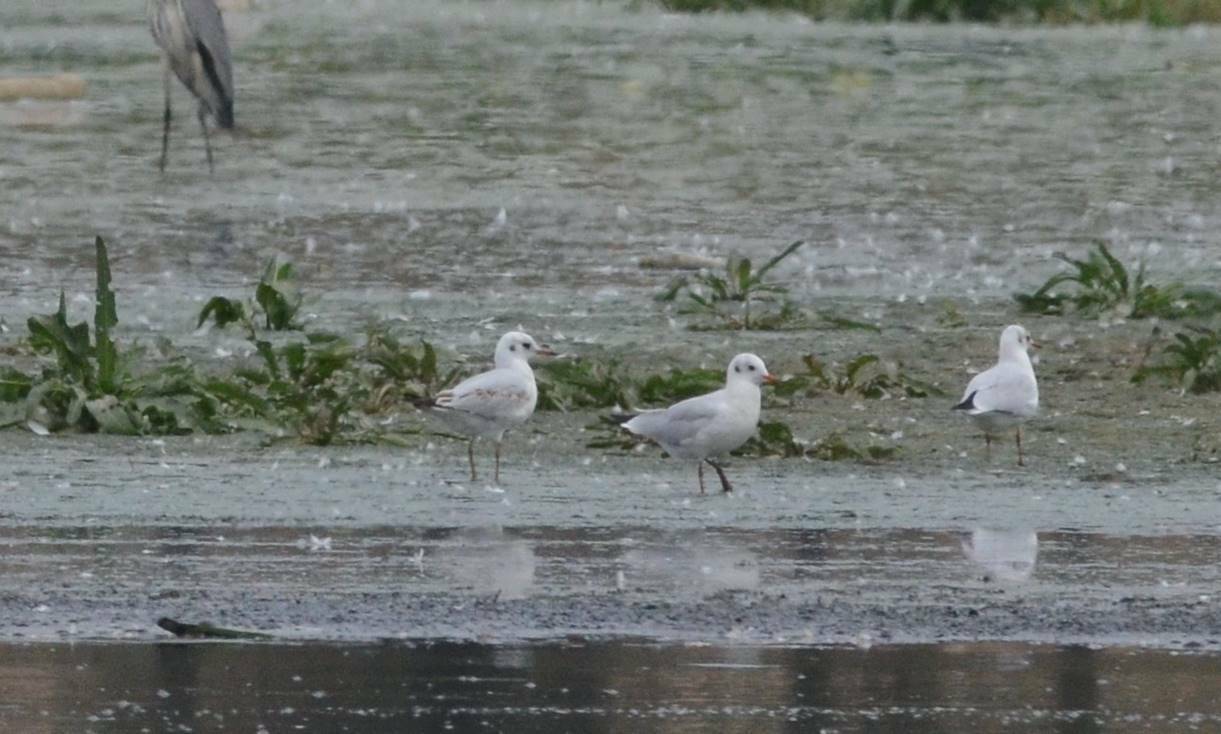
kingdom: Animalia
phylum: Chordata
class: Aves
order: Charadriiformes
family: Laridae
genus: Chroicocephalus
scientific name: Chroicocephalus ridibundus
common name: Black-headed gull
